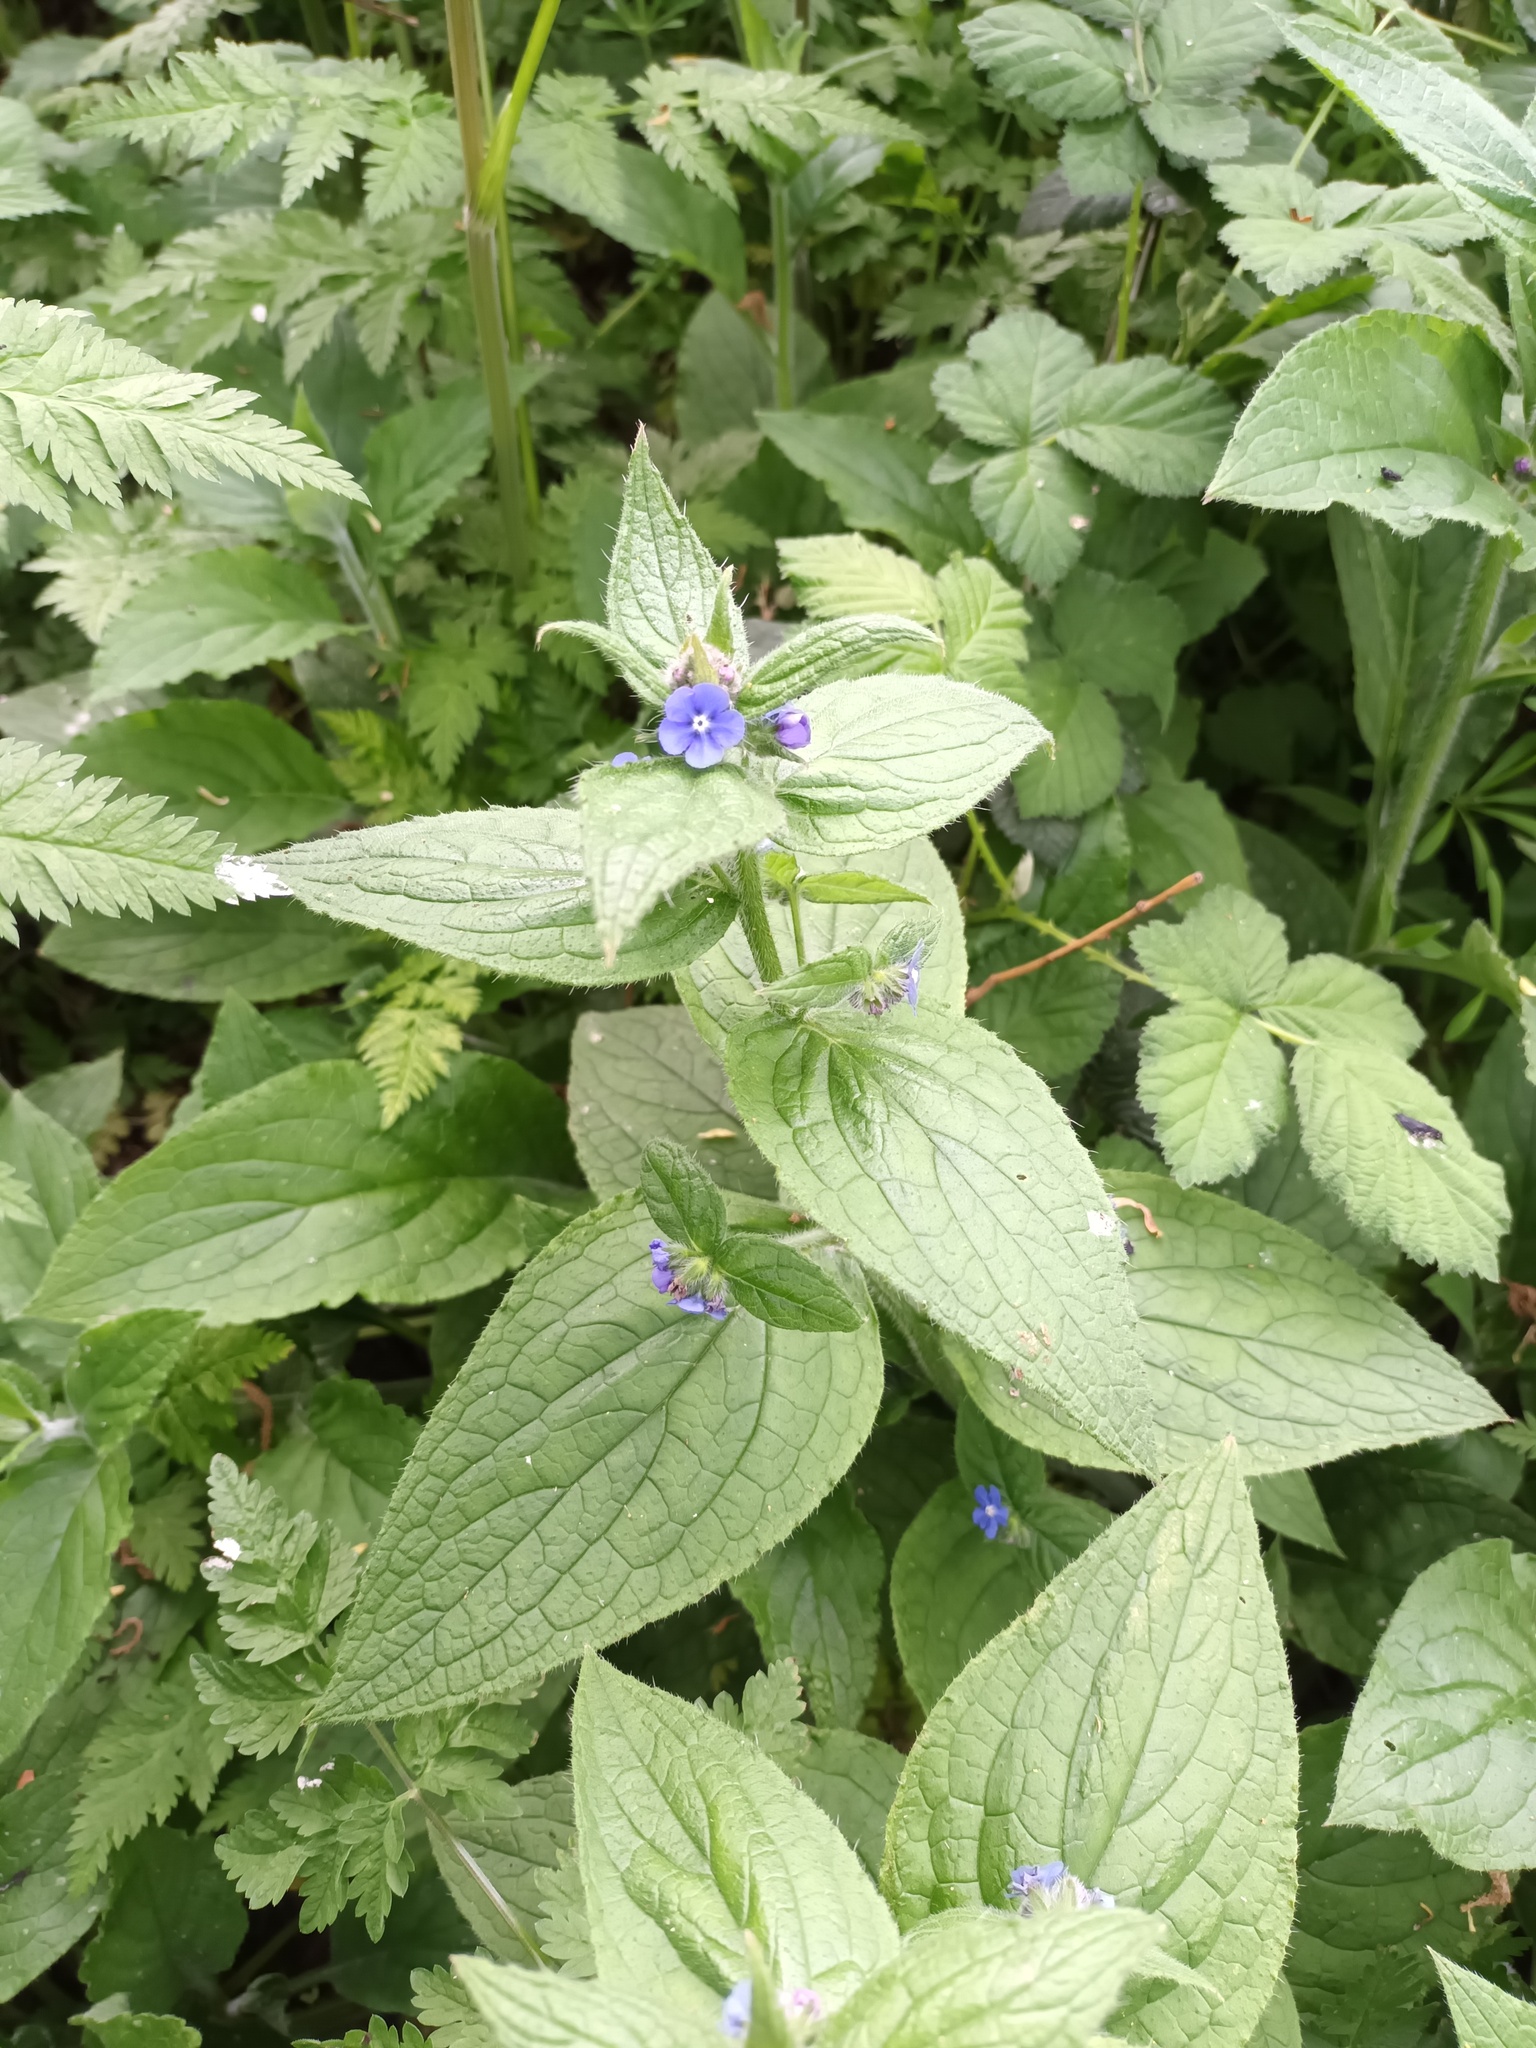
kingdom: Plantae
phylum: Tracheophyta
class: Magnoliopsida
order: Boraginales
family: Boraginaceae
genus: Pentaglottis
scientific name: Pentaglottis sempervirens
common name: Green alkanet
